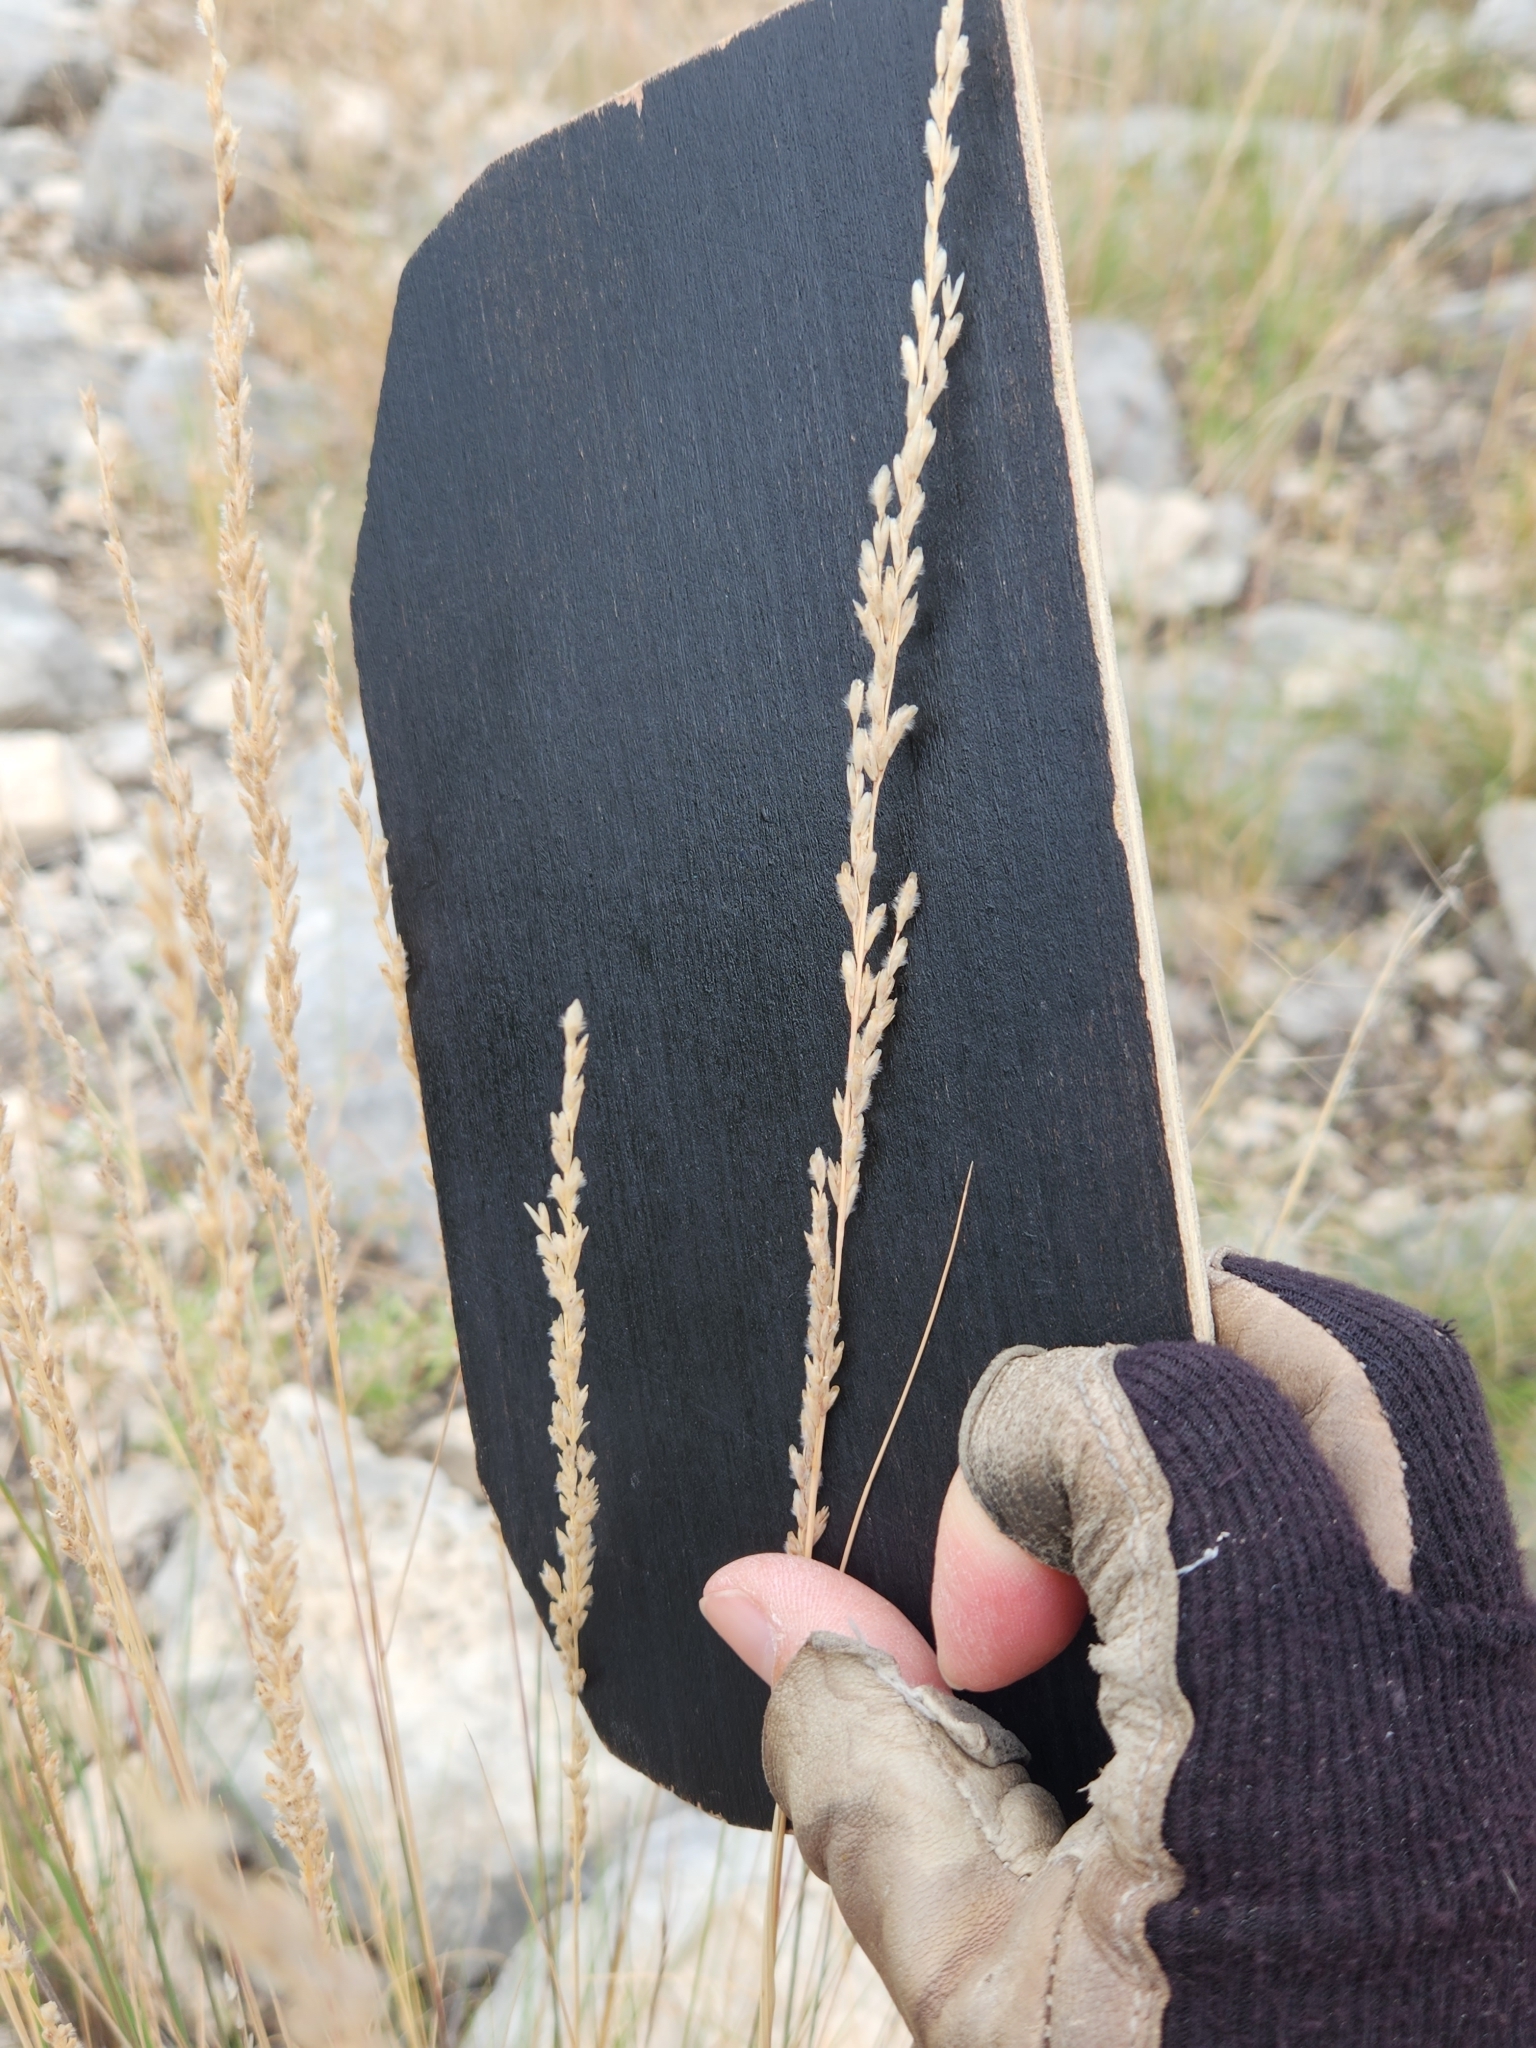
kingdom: Plantae
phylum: Tracheophyta
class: Liliopsida
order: Poales
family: Poaceae
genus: Tridentopsis
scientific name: Tridentopsis mutica
